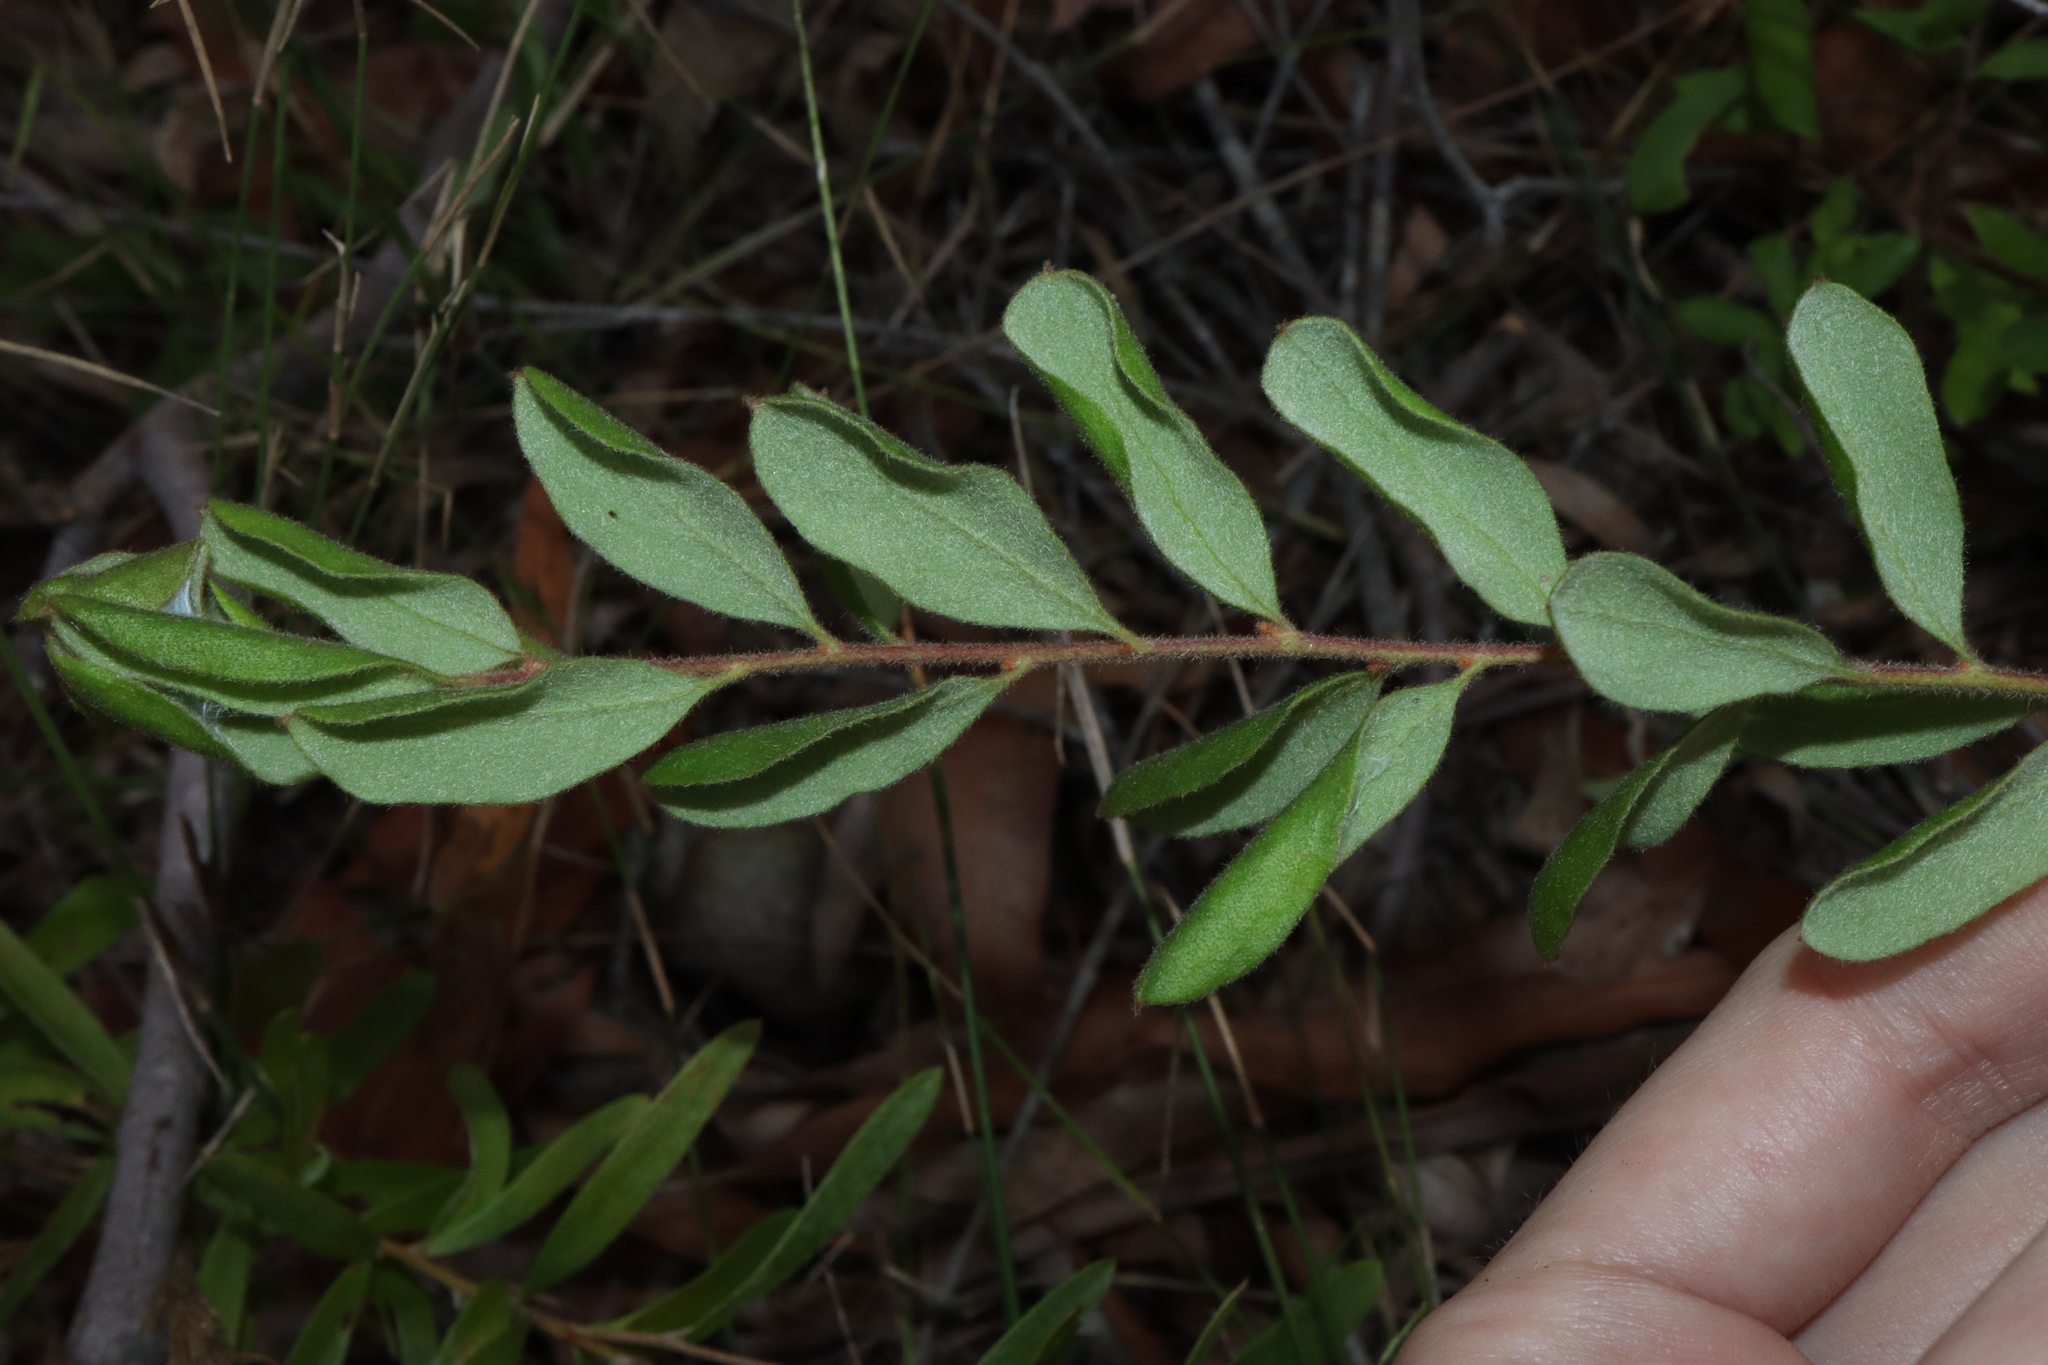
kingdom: Plantae
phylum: Tracheophyta
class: Magnoliopsida
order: Proteales
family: Proteaceae
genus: Grevillea
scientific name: Grevillea mucronulata
